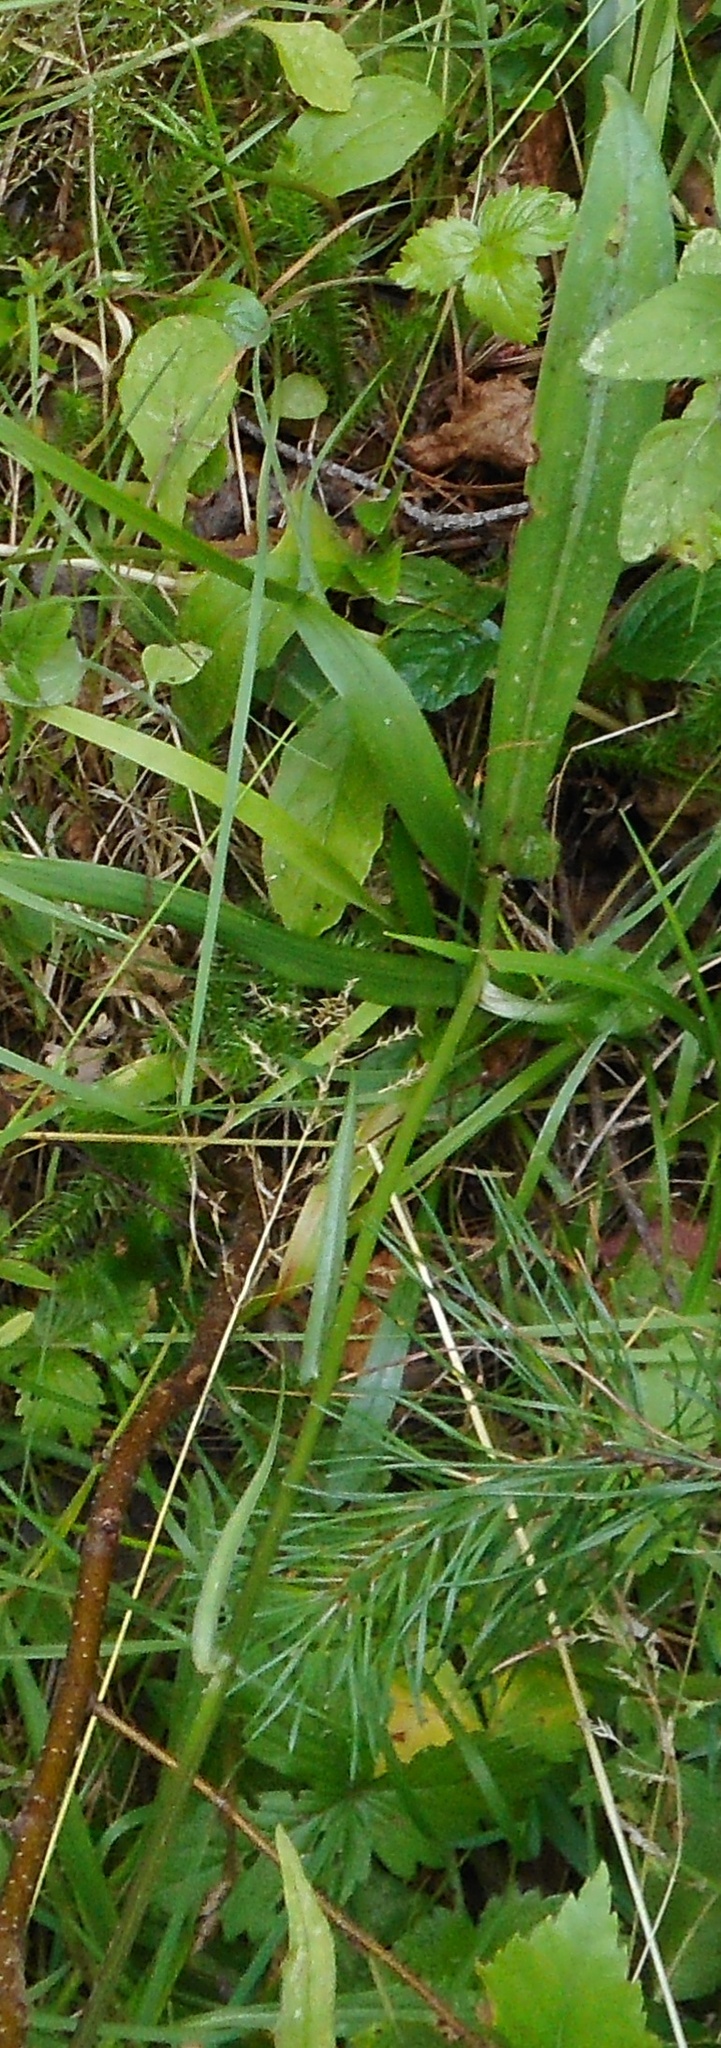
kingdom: Plantae
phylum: Tracheophyta
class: Liliopsida
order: Asparagales
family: Orchidaceae
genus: Dactylorhiza
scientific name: Dactylorhiza maculata
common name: Heath spotted-orchid
